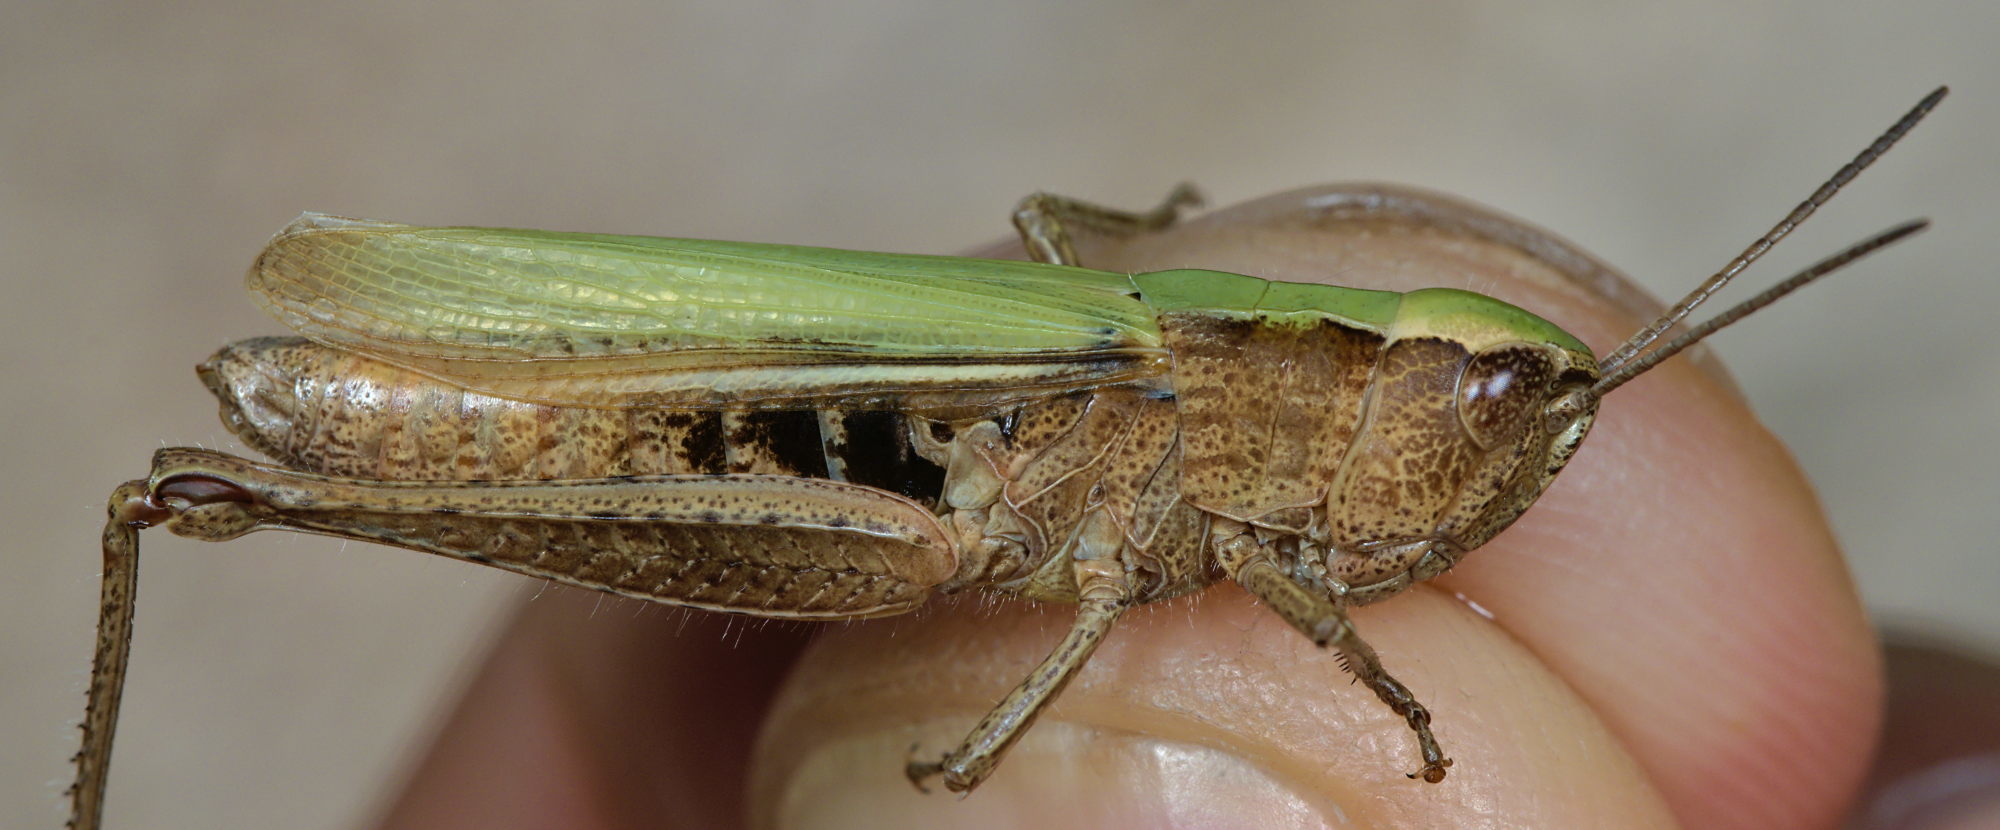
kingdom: Animalia
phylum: Arthropoda
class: Insecta
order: Orthoptera
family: Acrididae
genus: Chorthippus
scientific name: Chorthippus dorsatus
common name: Steppe grasshopper
